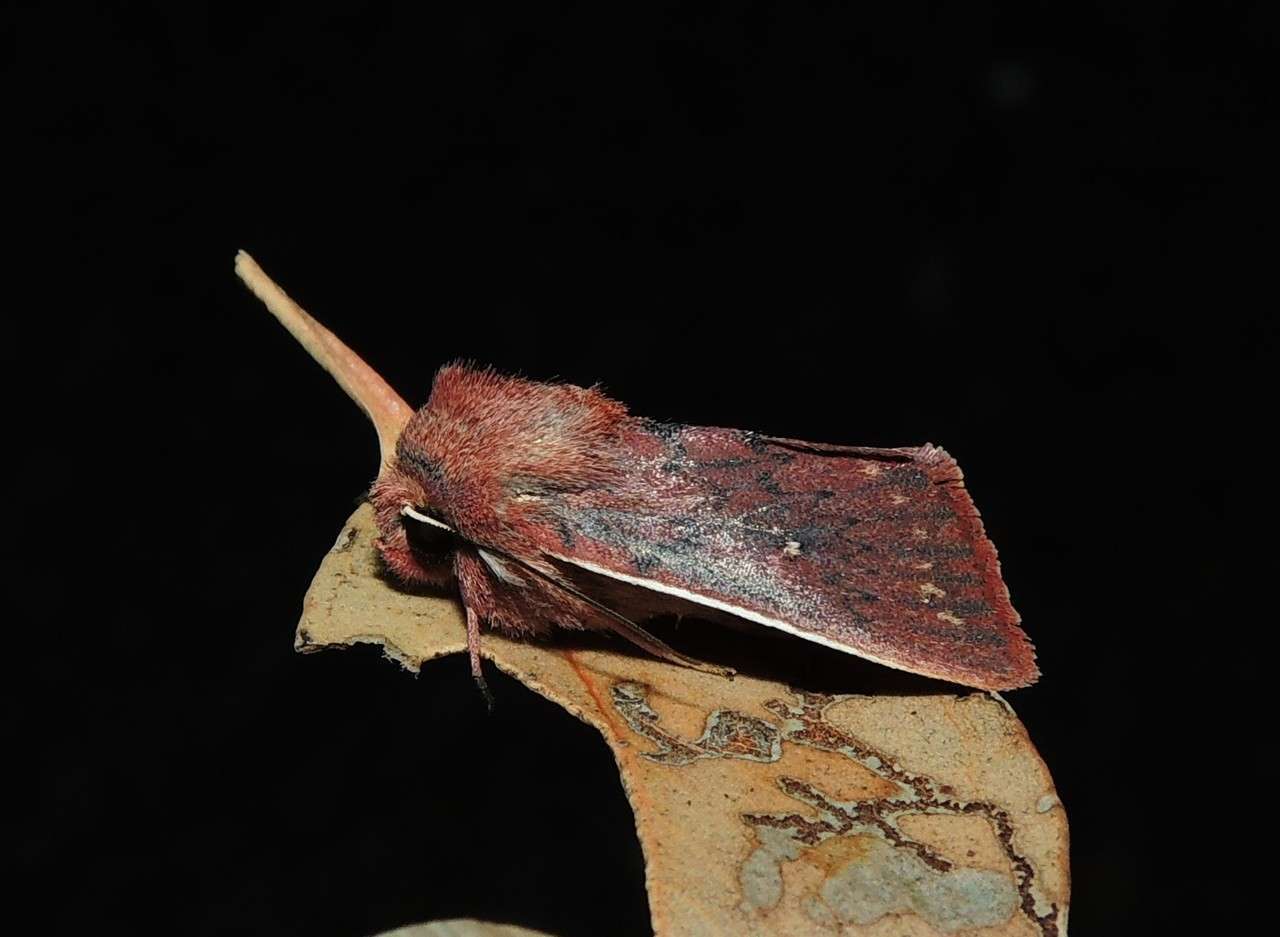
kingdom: Animalia
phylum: Arthropoda
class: Insecta
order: Lepidoptera
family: Noctuidae
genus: Leucania
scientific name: Leucania
